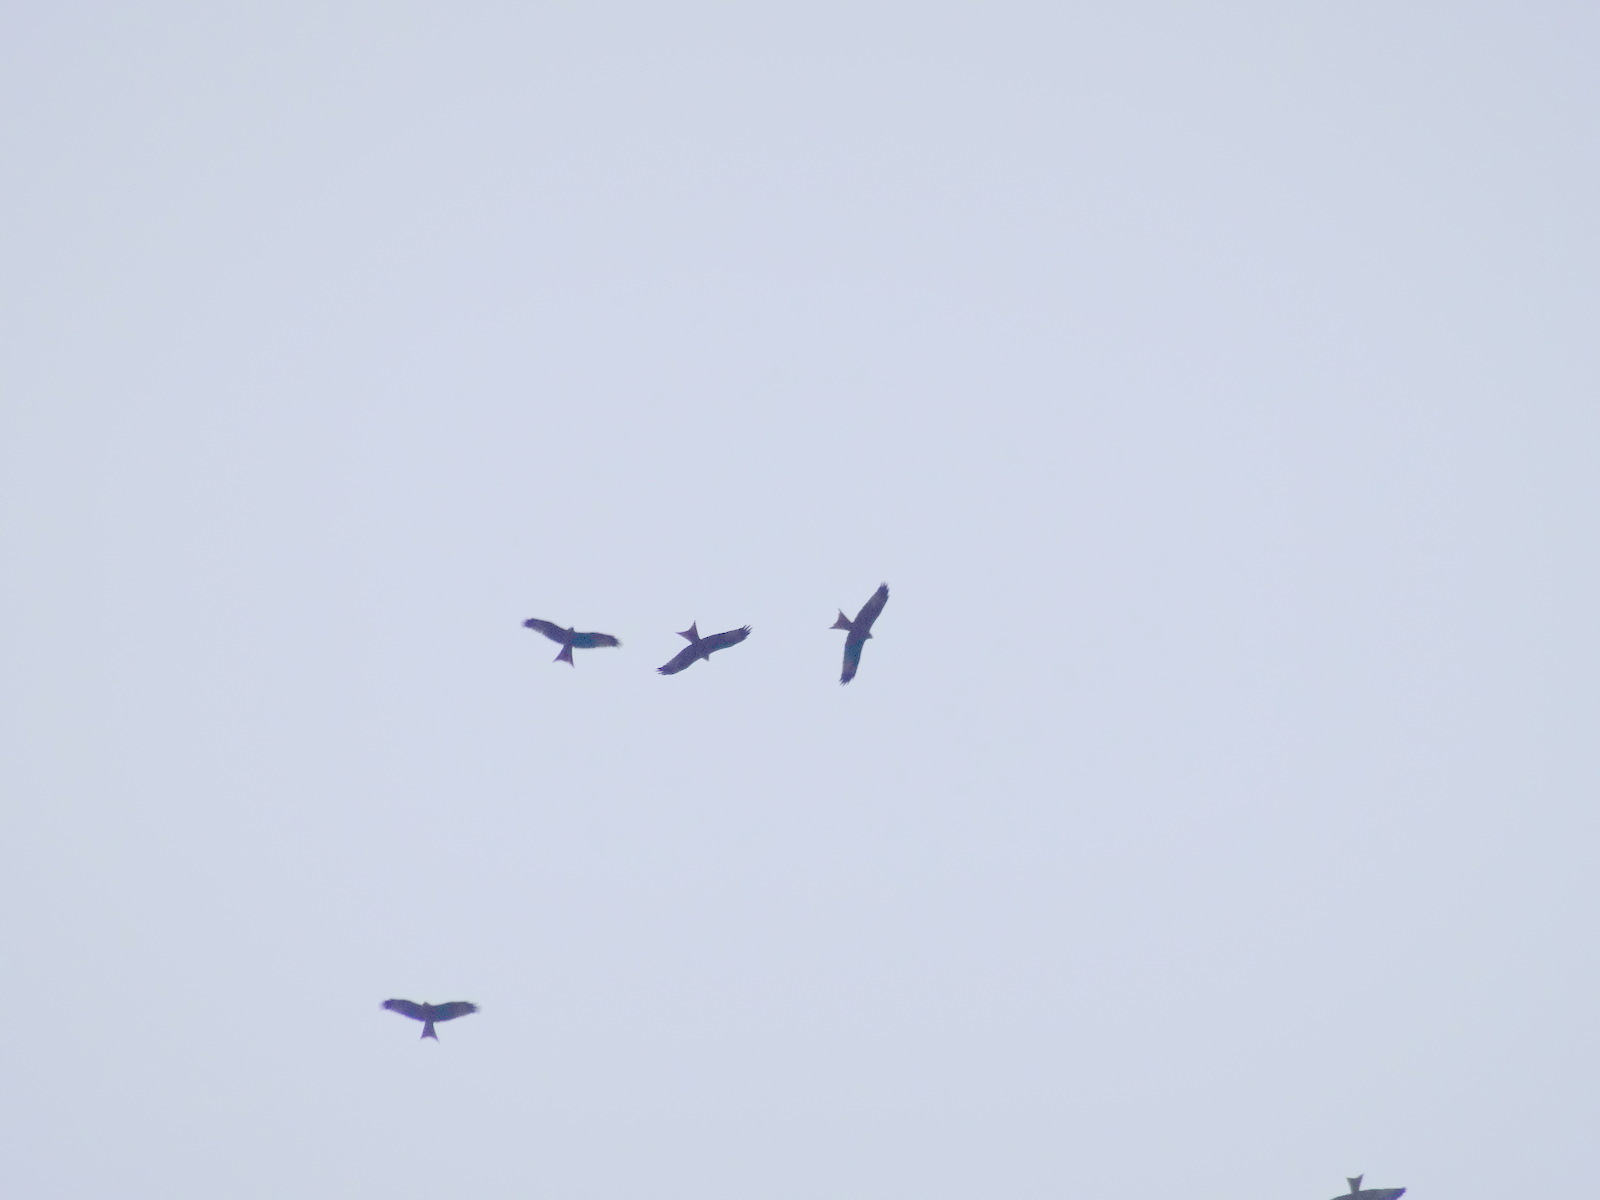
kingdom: Animalia
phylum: Chordata
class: Aves
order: Accipitriformes
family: Accipitridae
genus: Milvus
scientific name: Milvus milvus
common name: Red kite
